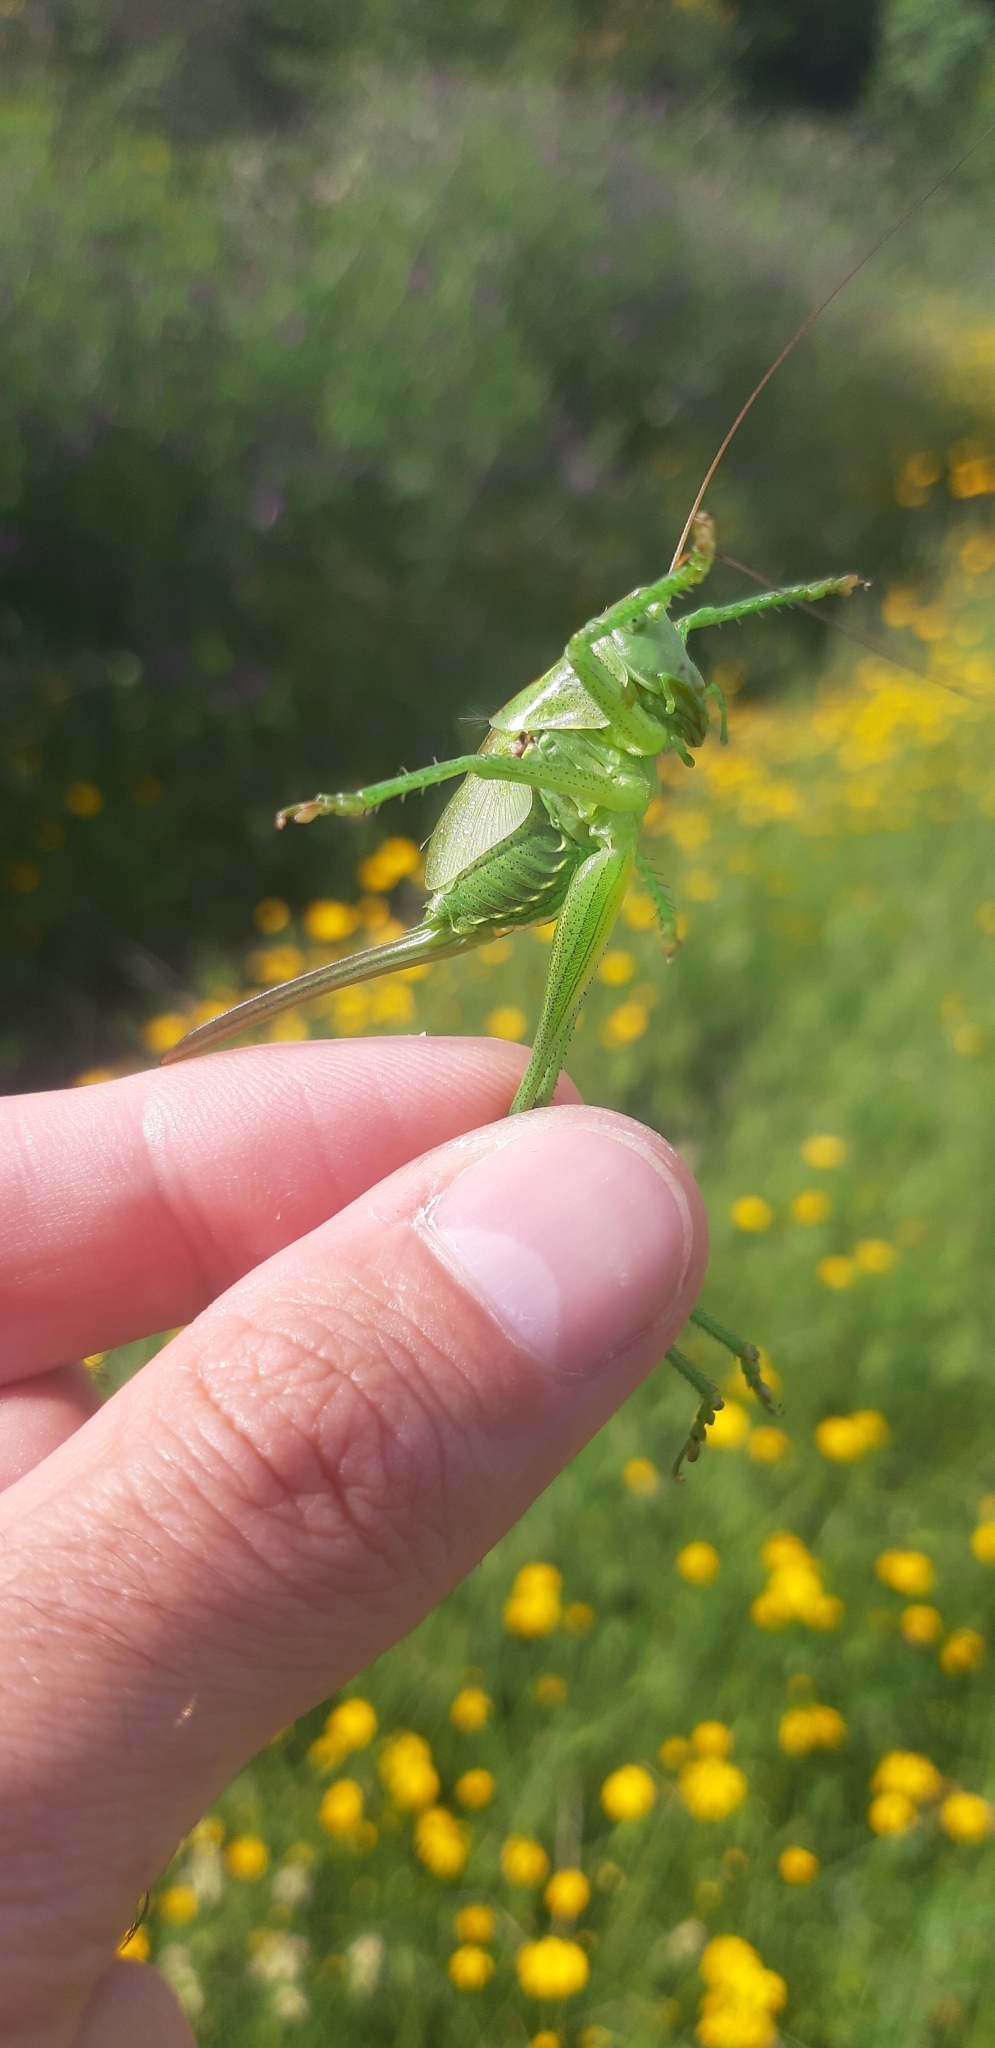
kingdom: Animalia
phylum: Arthropoda
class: Insecta
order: Orthoptera
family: Tettigoniidae
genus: Tettigonia
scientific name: Tettigonia viridissima
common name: Great green bush-cricket
